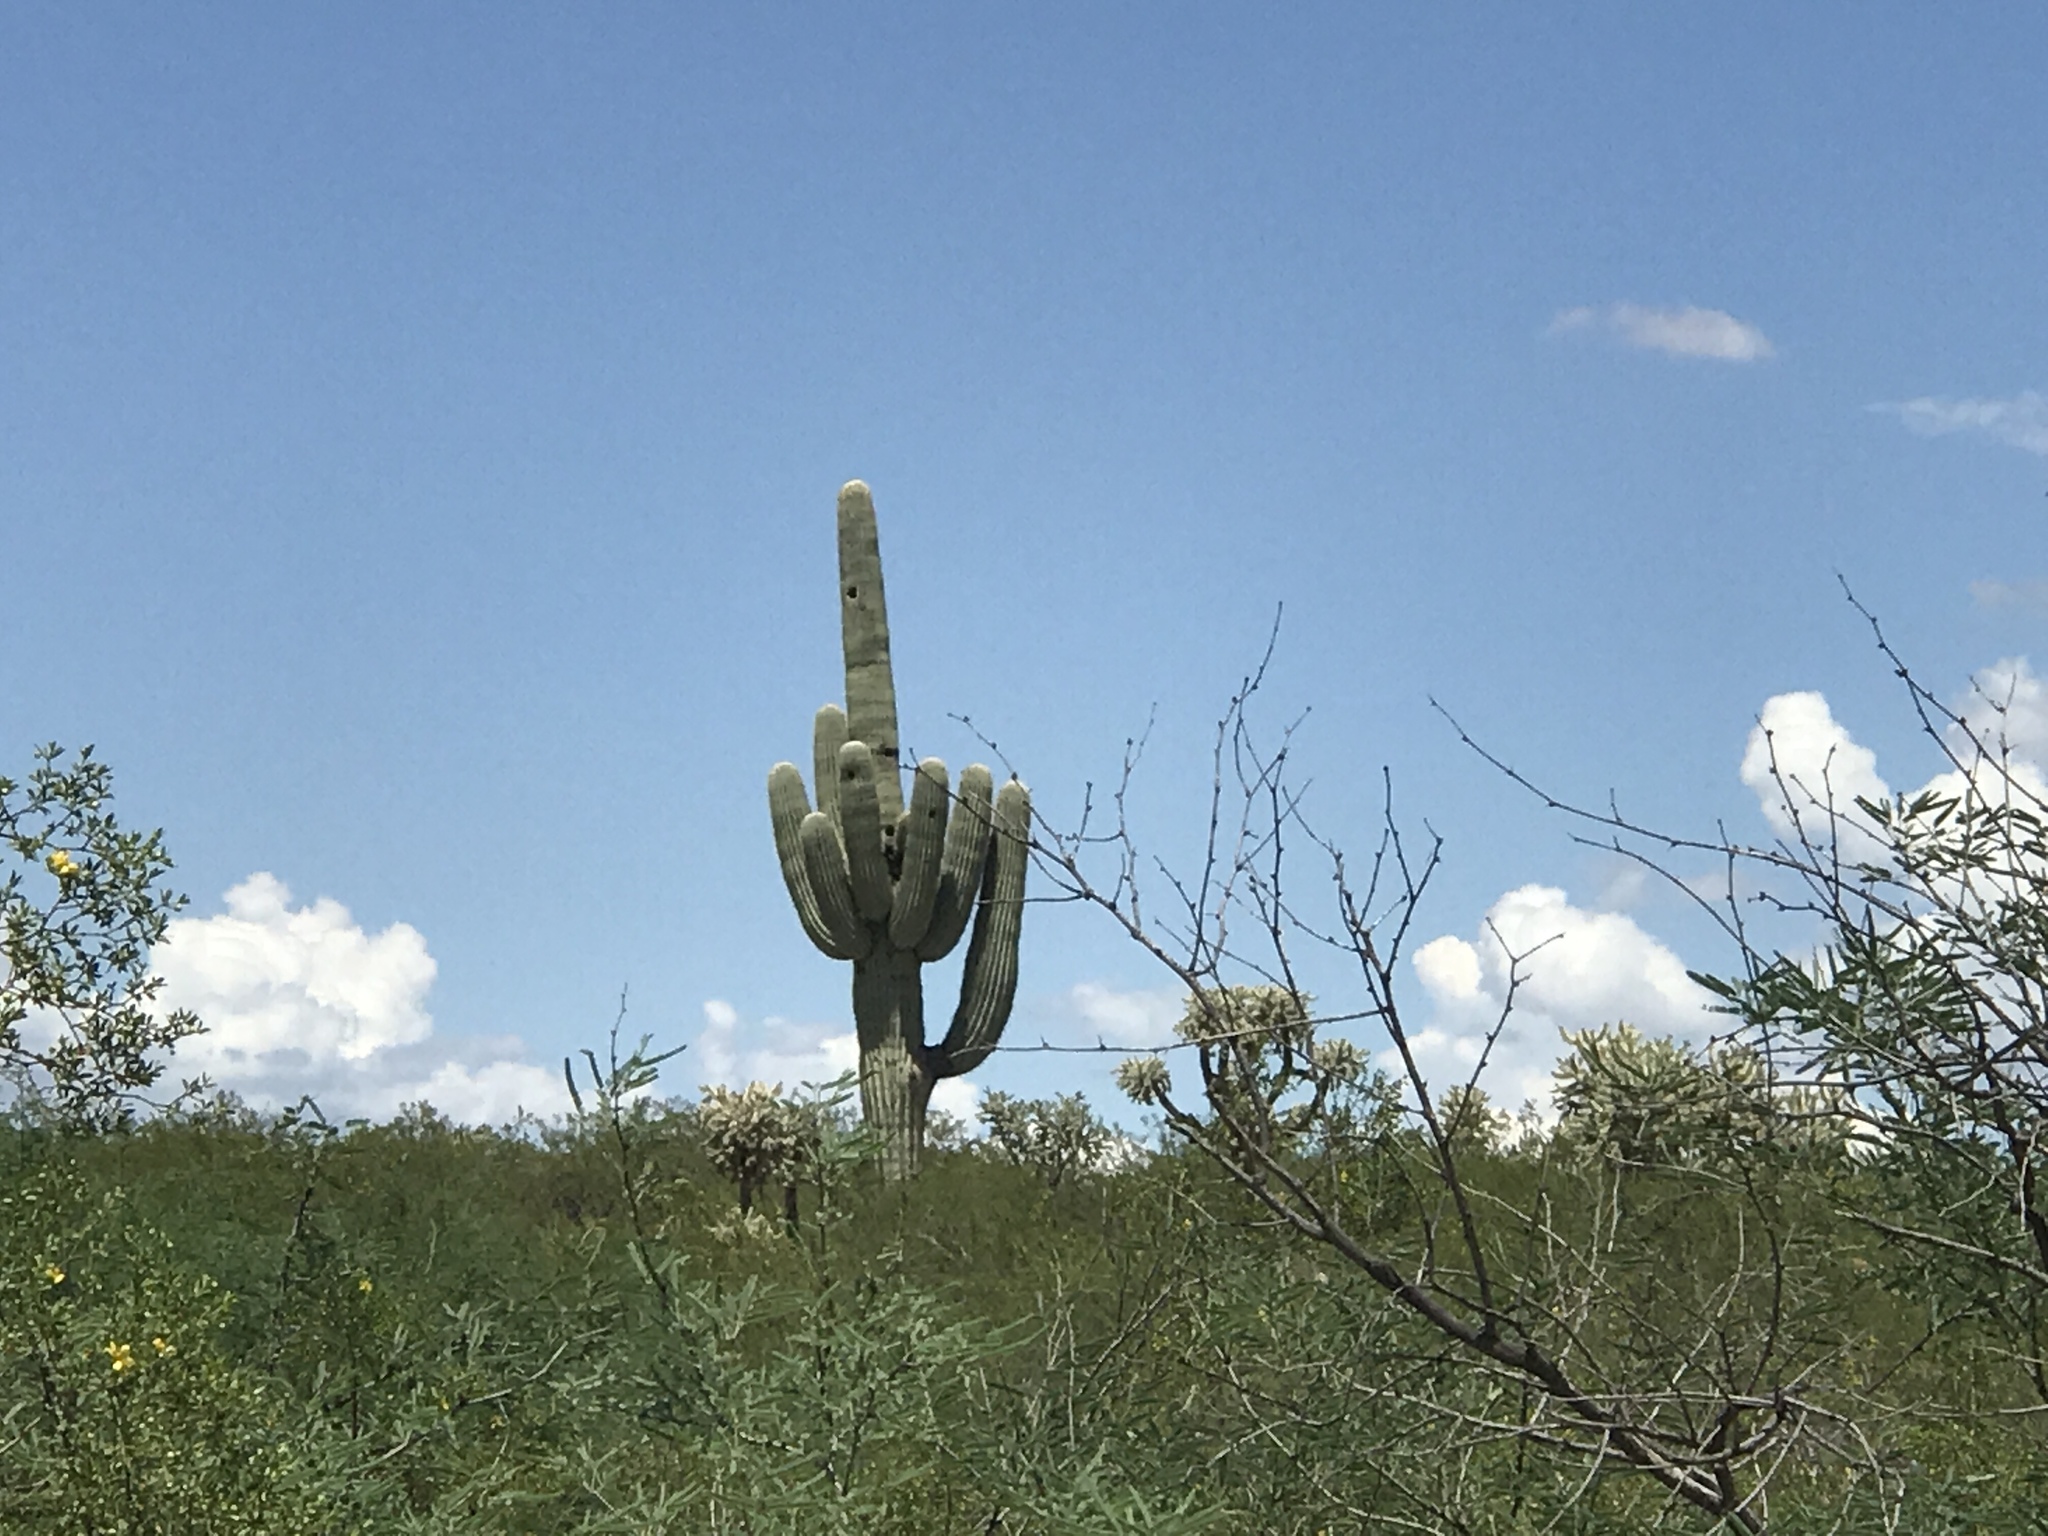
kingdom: Plantae
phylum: Tracheophyta
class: Magnoliopsida
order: Caryophyllales
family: Cactaceae
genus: Carnegiea
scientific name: Carnegiea gigantea
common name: Saguaro
